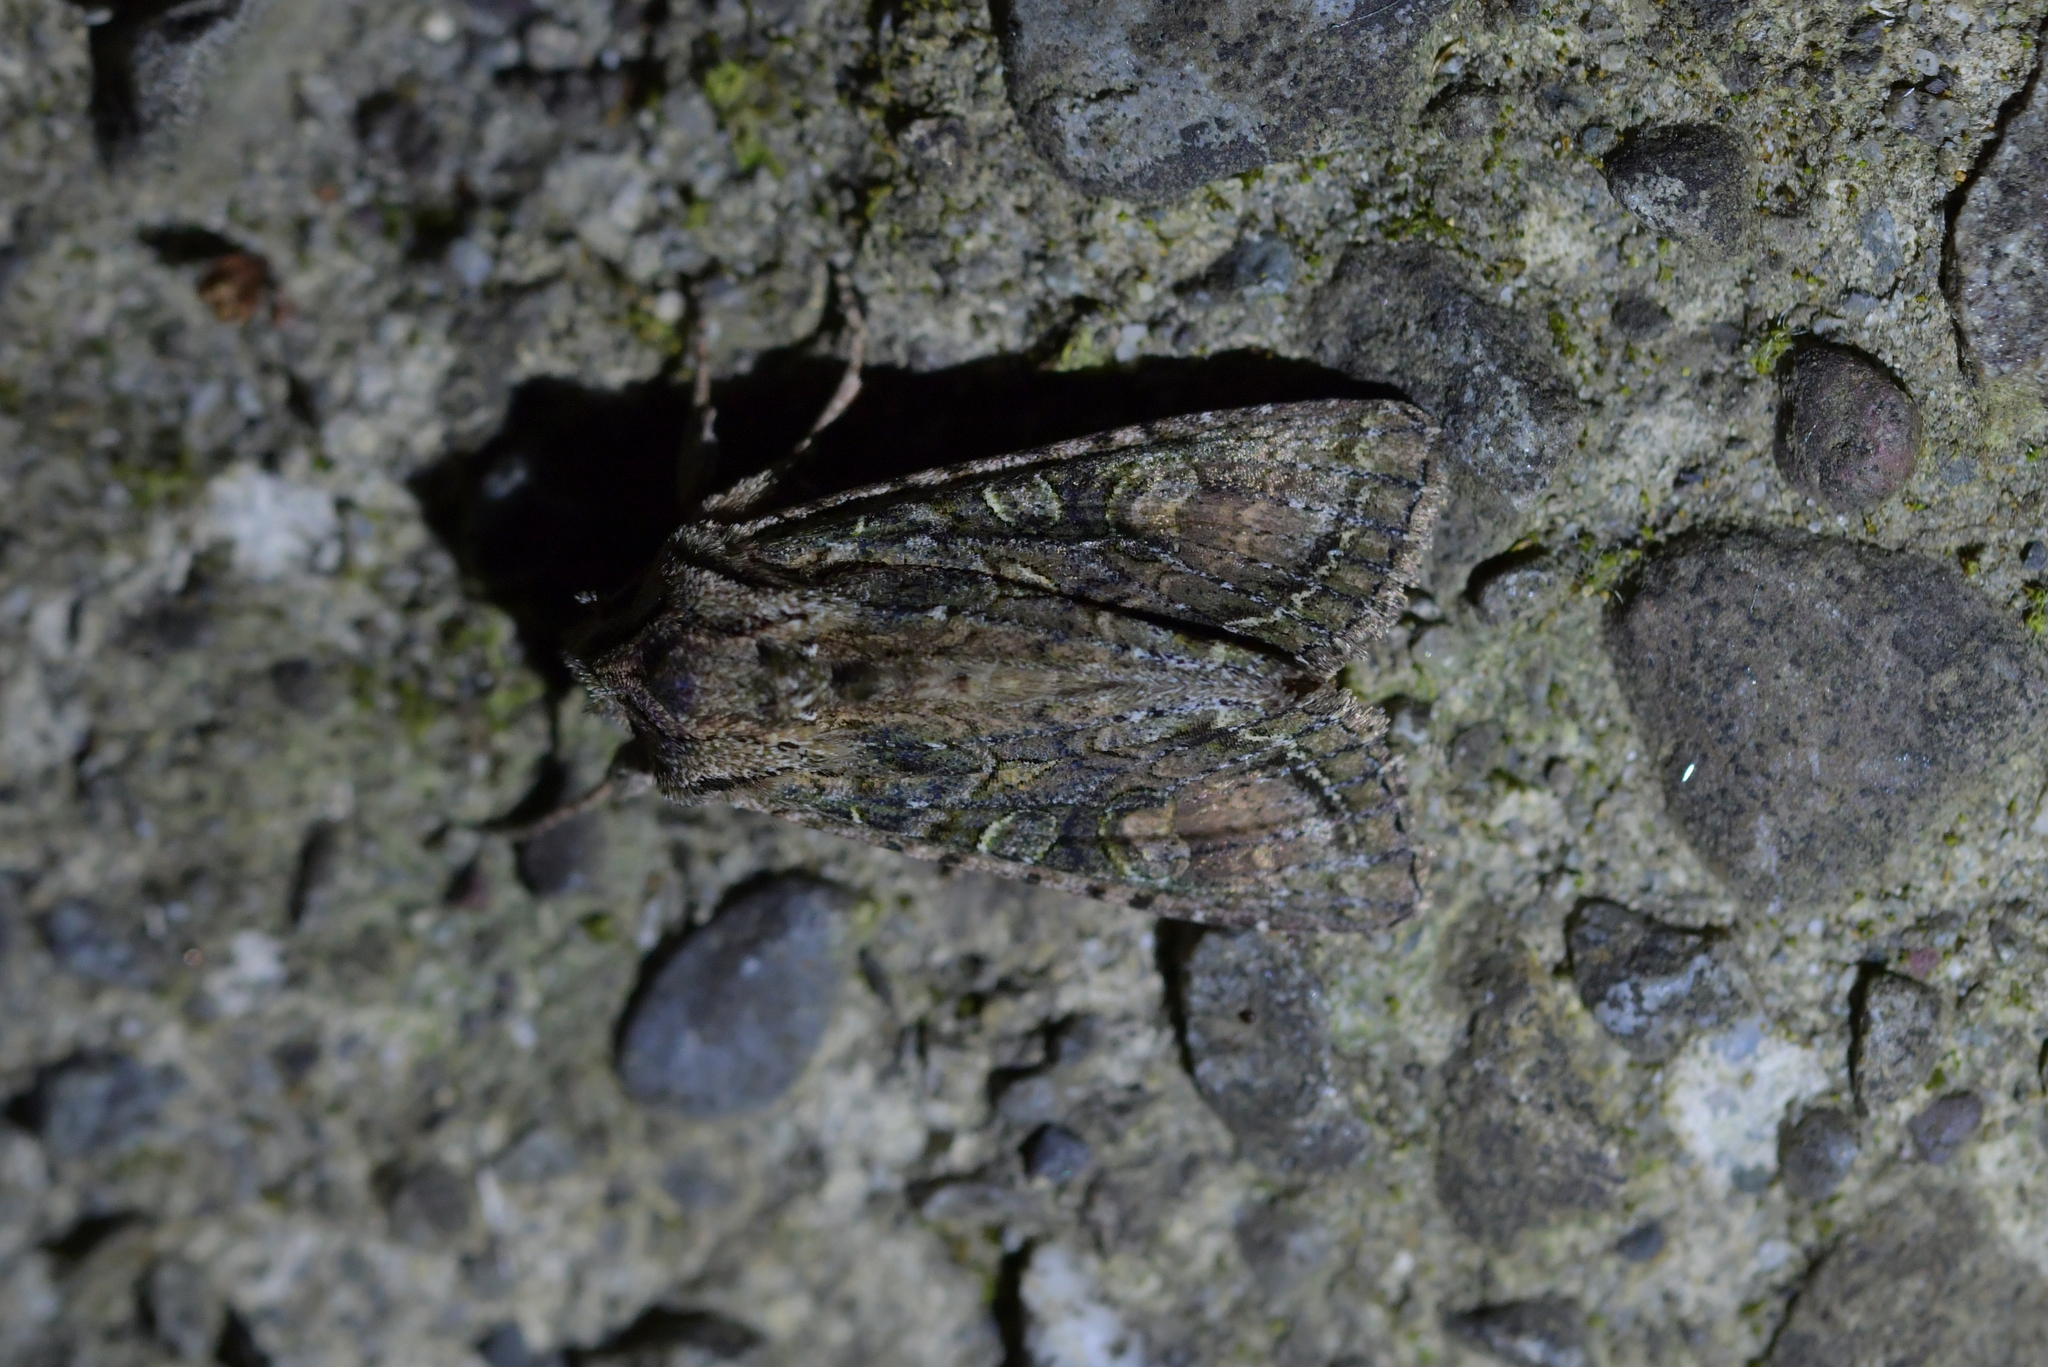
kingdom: Animalia
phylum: Arthropoda
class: Insecta
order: Lepidoptera
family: Noctuidae
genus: Ichneutica
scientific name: Ichneutica mutans
